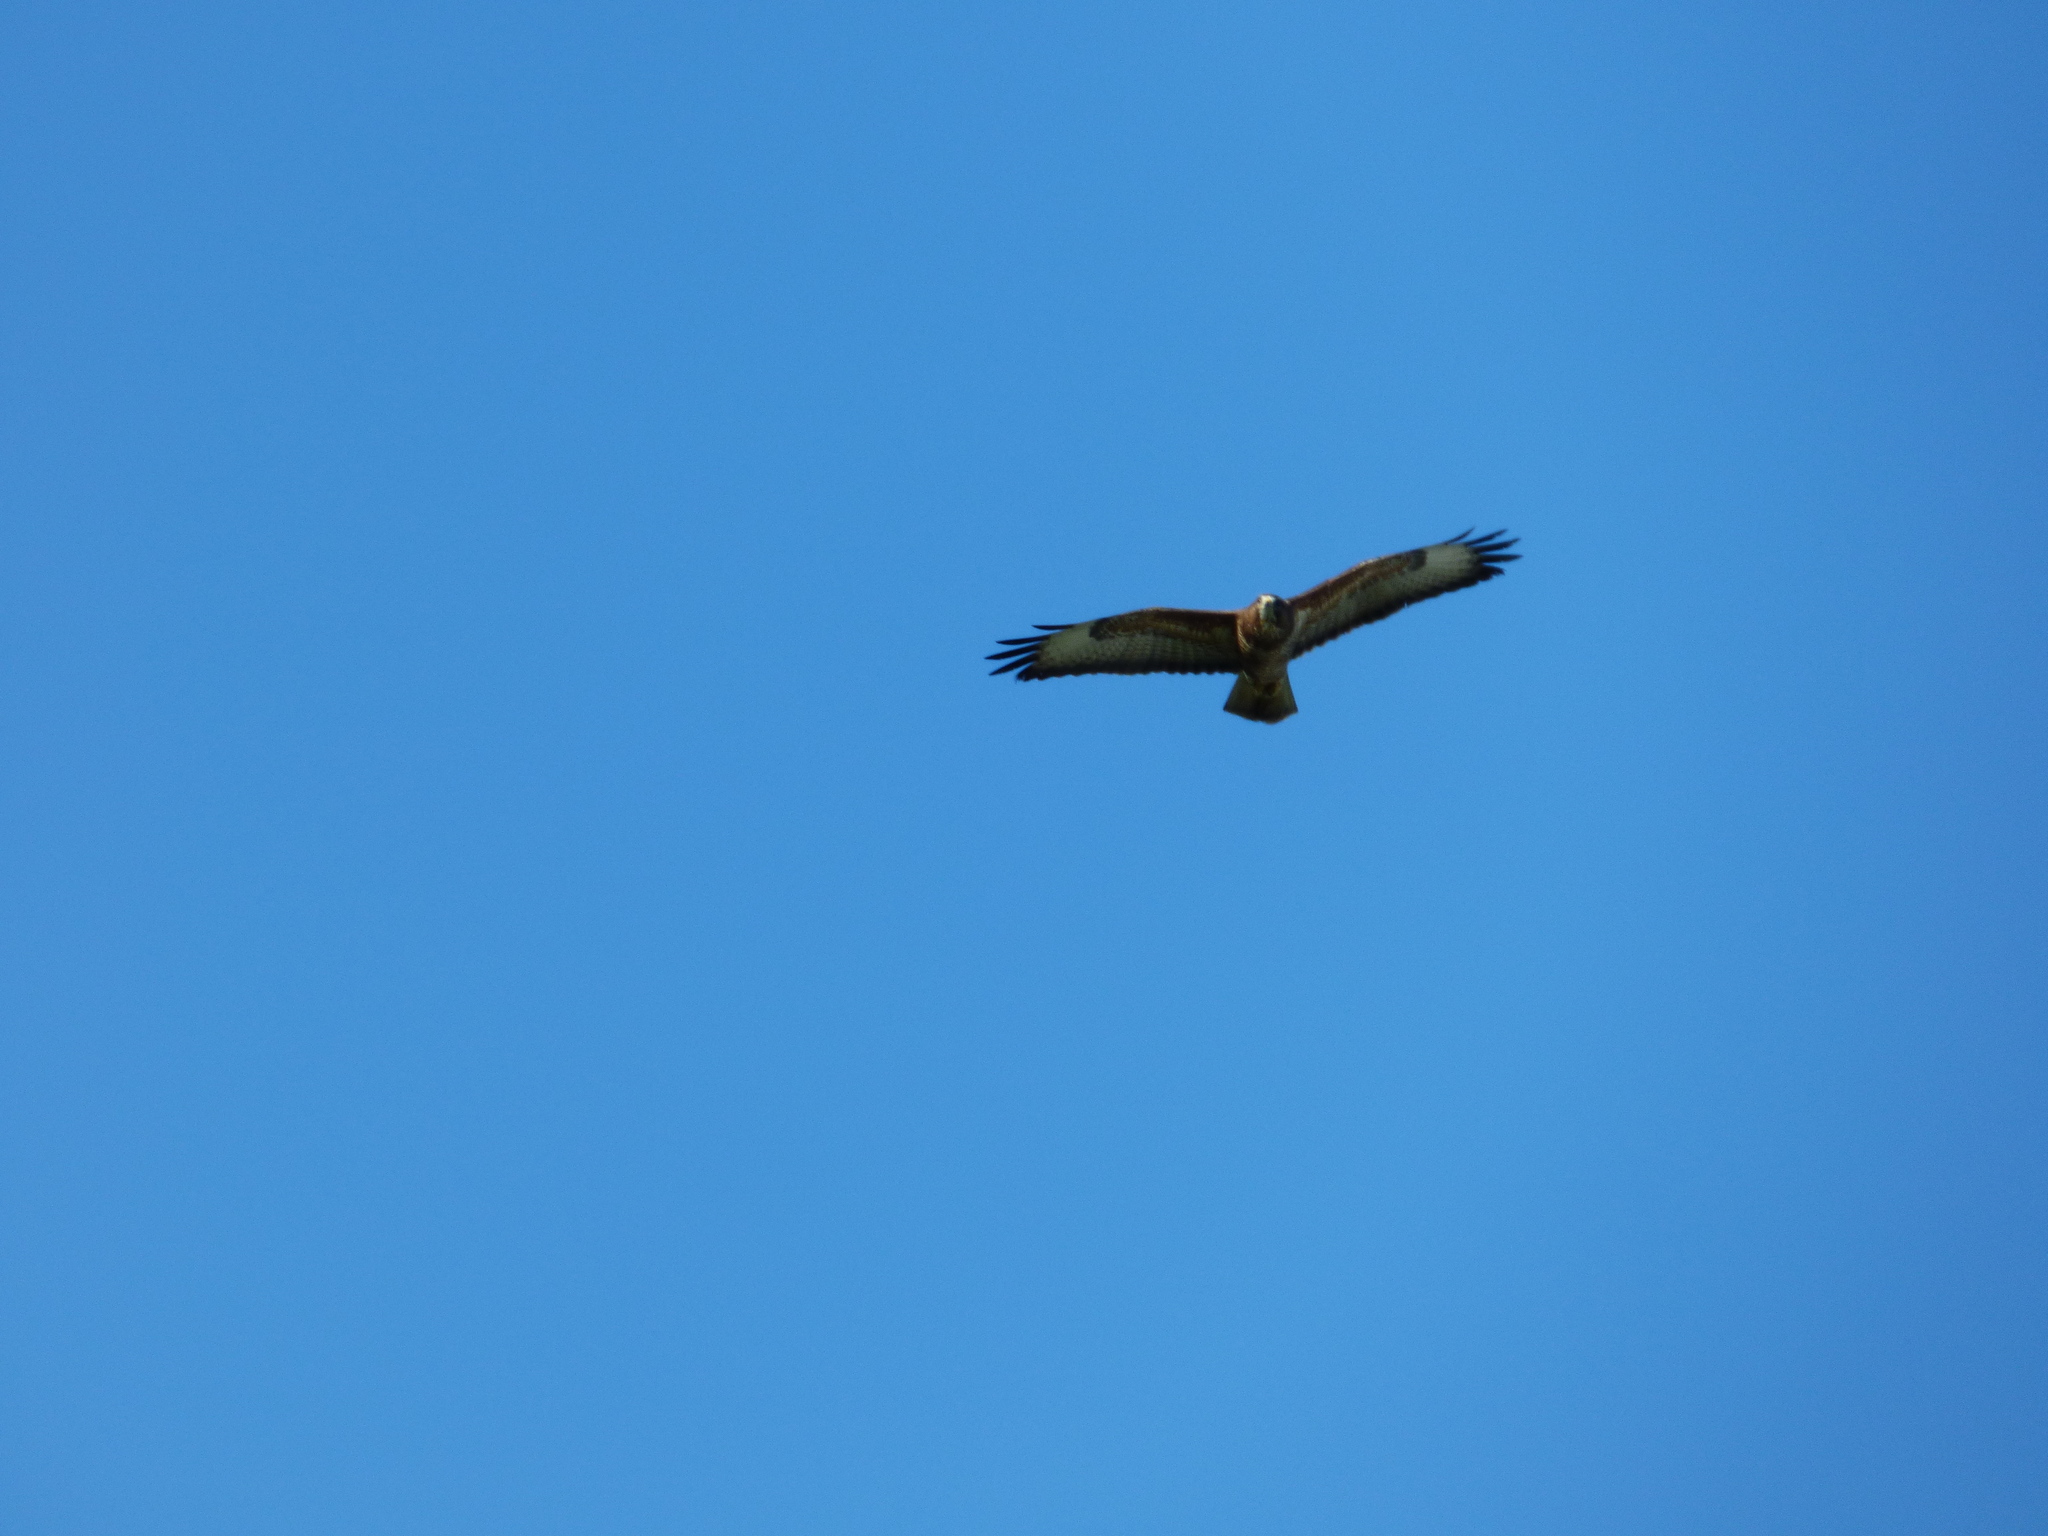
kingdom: Animalia
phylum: Chordata
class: Aves
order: Accipitriformes
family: Accipitridae
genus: Buteo
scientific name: Buteo buteo
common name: Common buzzard
